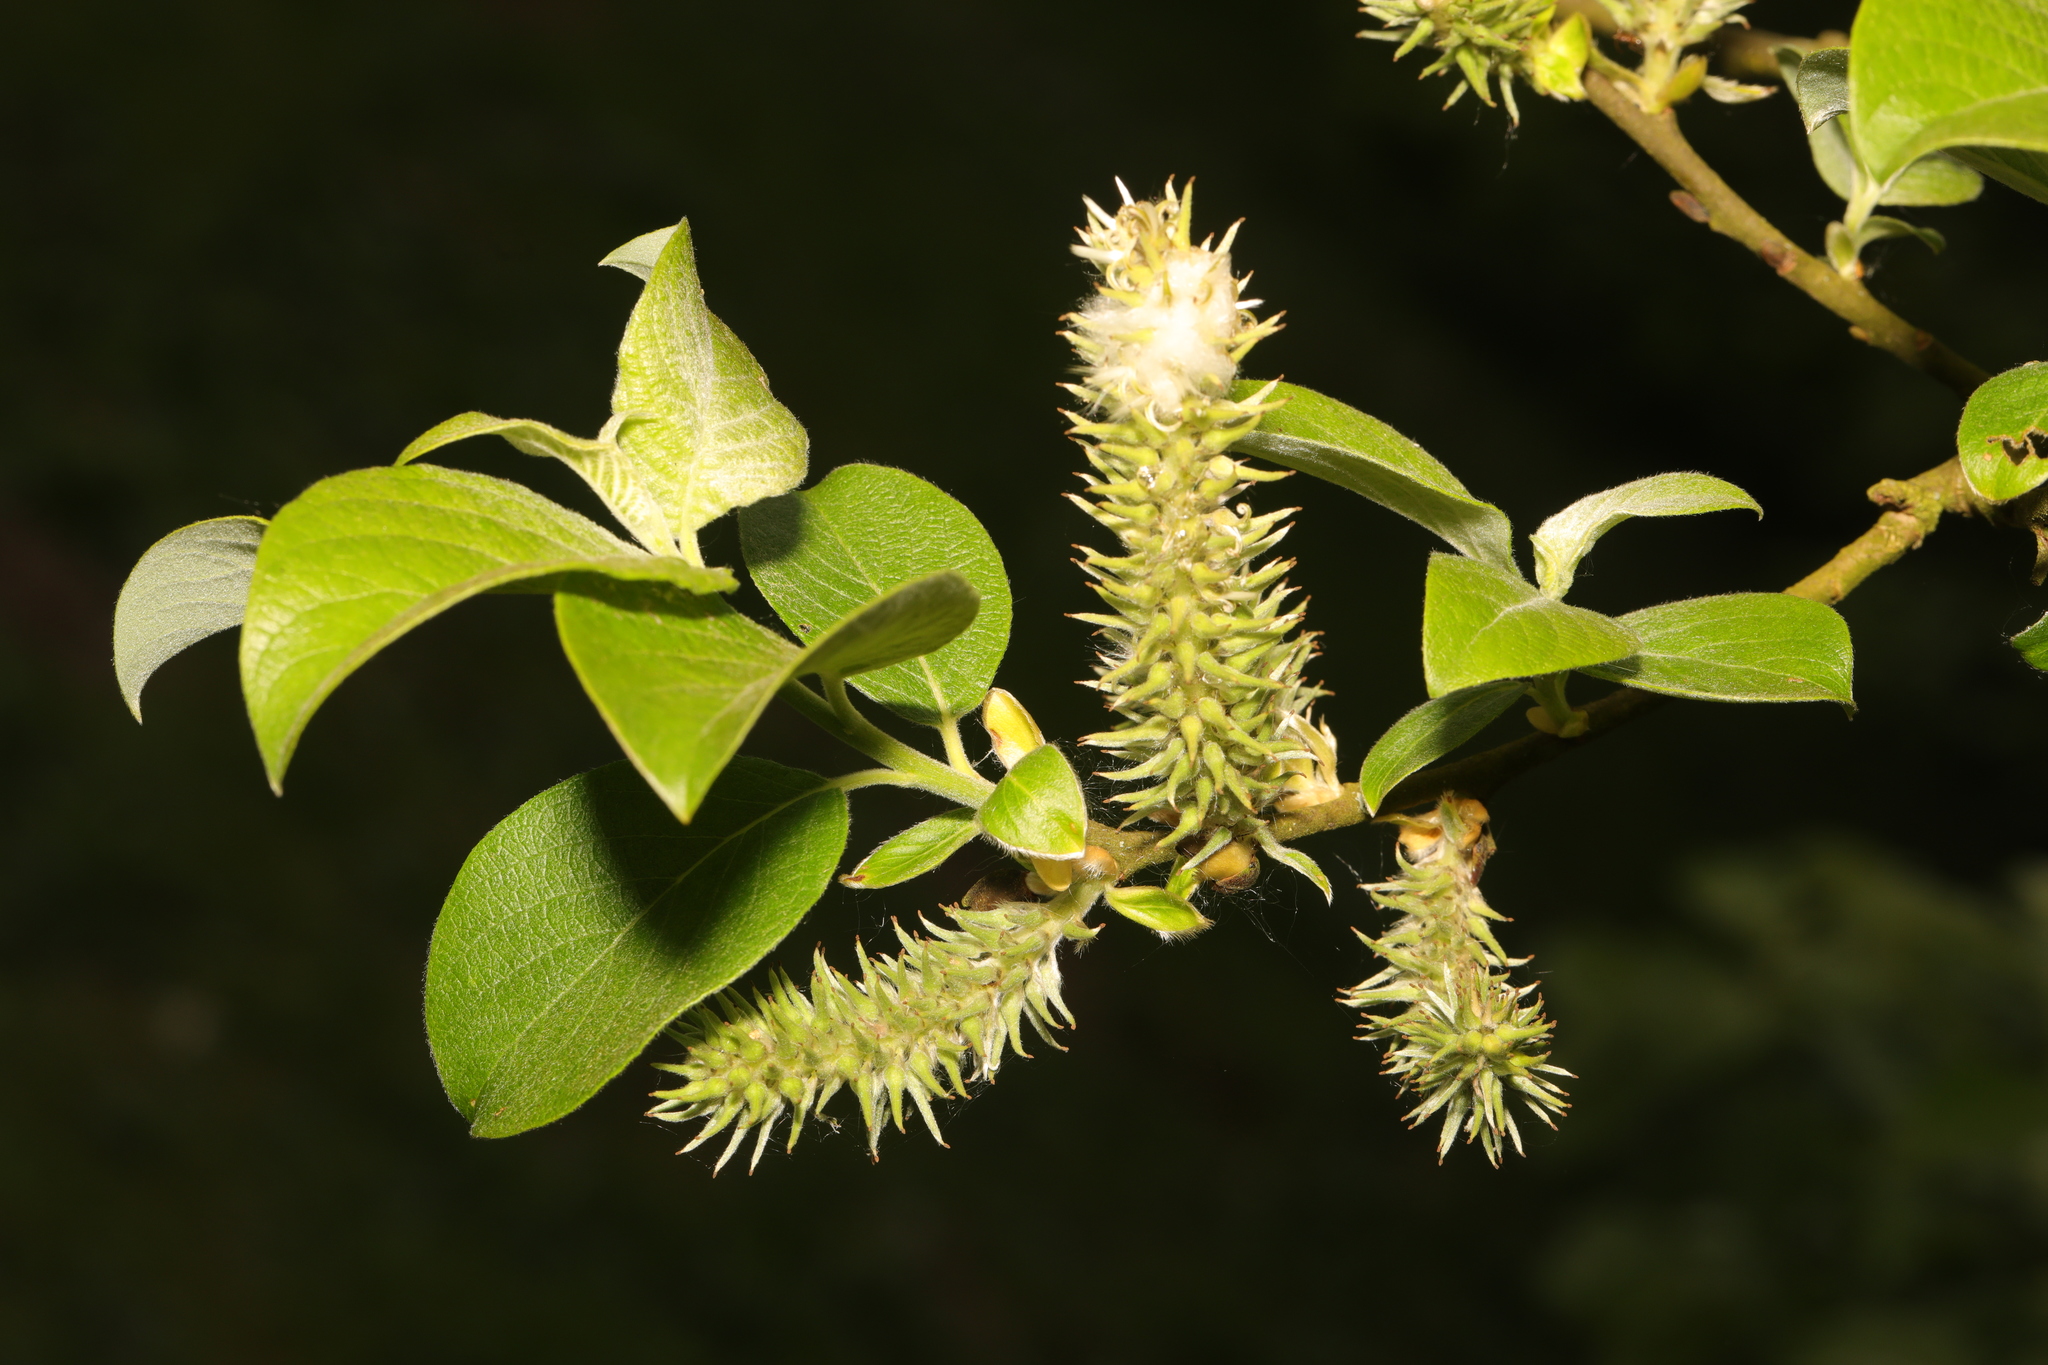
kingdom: Plantae
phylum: Tracheophyta
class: Magnoliopsida
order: Malpighiales
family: Salicaceae
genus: Salix
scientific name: Salix caprea
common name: Goat willow
